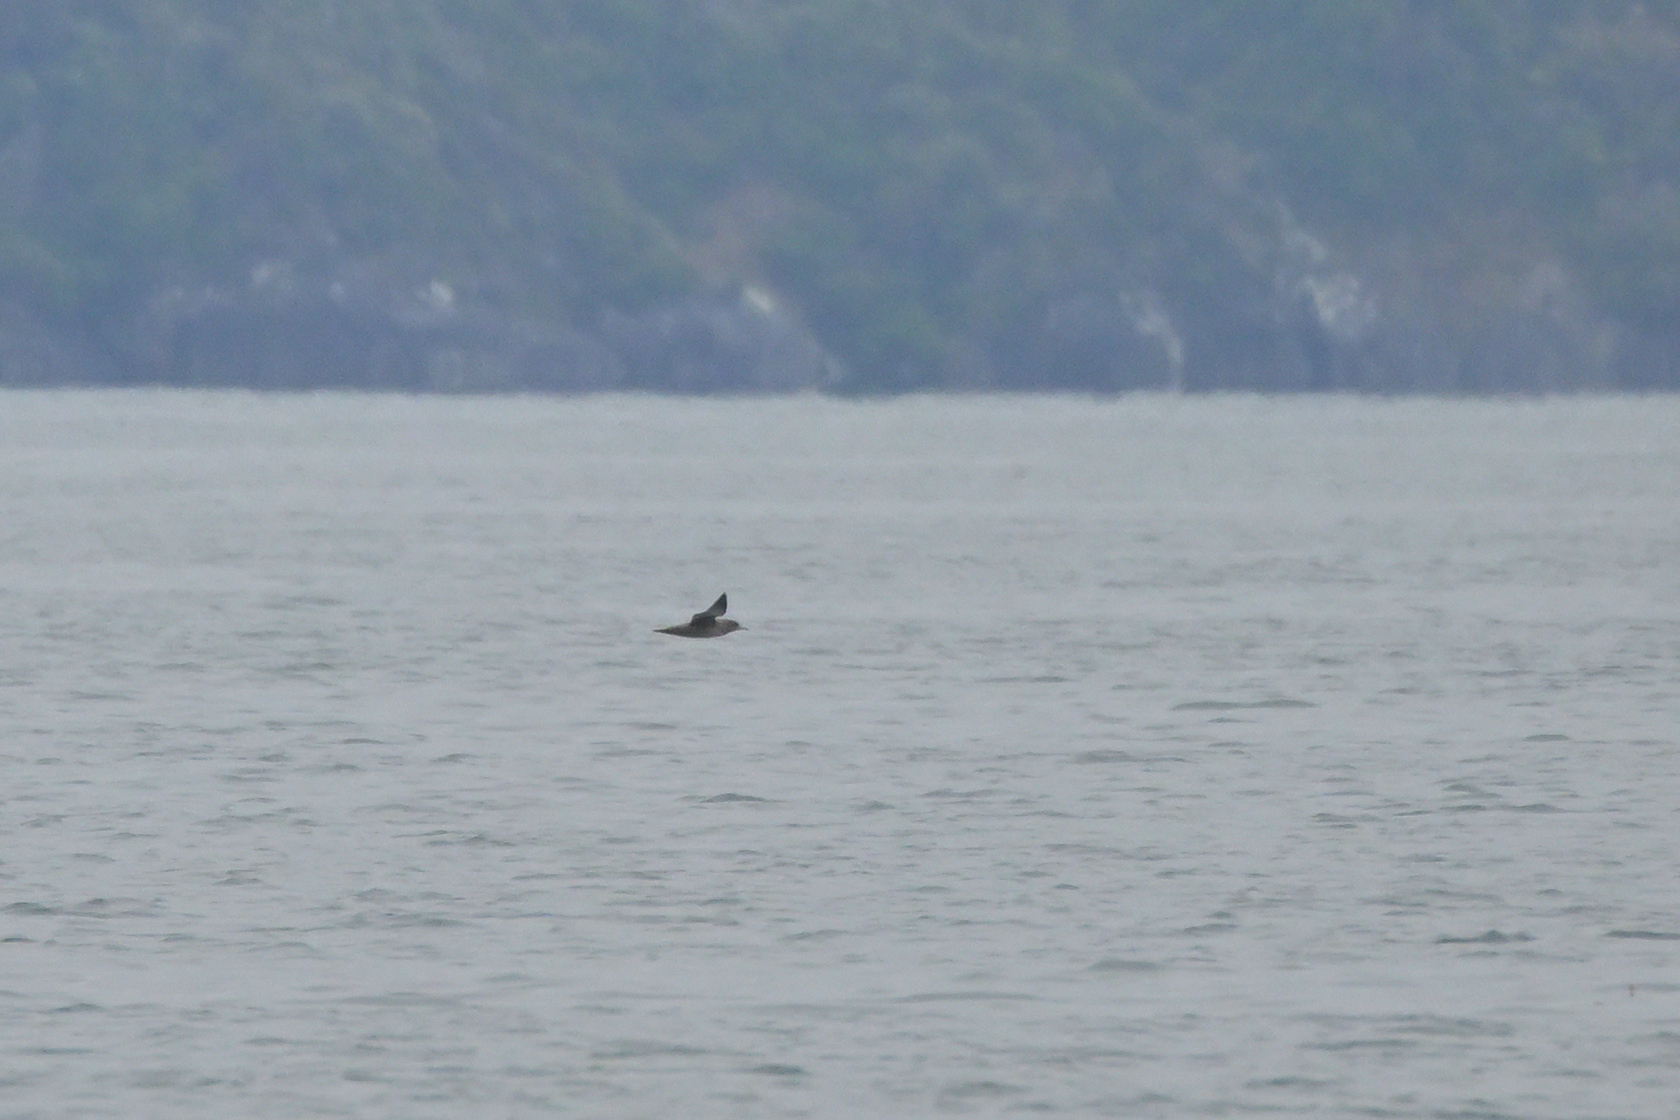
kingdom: Animalia
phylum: Chordata
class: Aves
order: Procellariiformes
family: Procellariidae
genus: Puffinus
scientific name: Puffinus griseus
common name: Sooty shearwater
